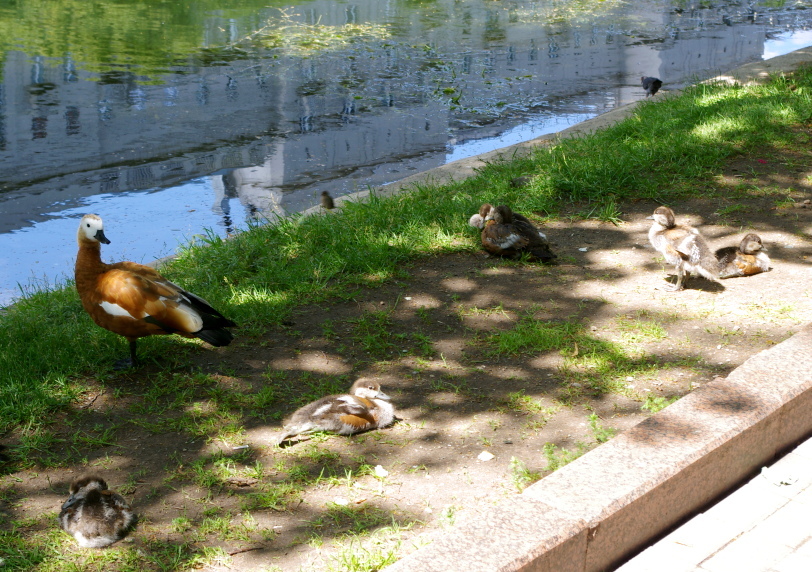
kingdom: Animalia
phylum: Chordata
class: Aves
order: Anseriformes
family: Anatidae
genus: Tadorna
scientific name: Tadorna ferruginea
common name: Ruddy shelduck
